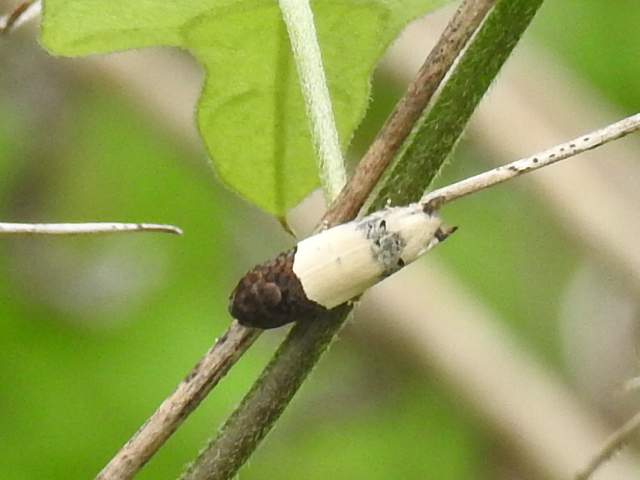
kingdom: Animalia
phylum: Arthropoda
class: Insecta
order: Lepidoptera
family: Tortricidae
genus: Epiblema
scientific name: Epiblema scudderiana
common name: Goldenrod gall moth
